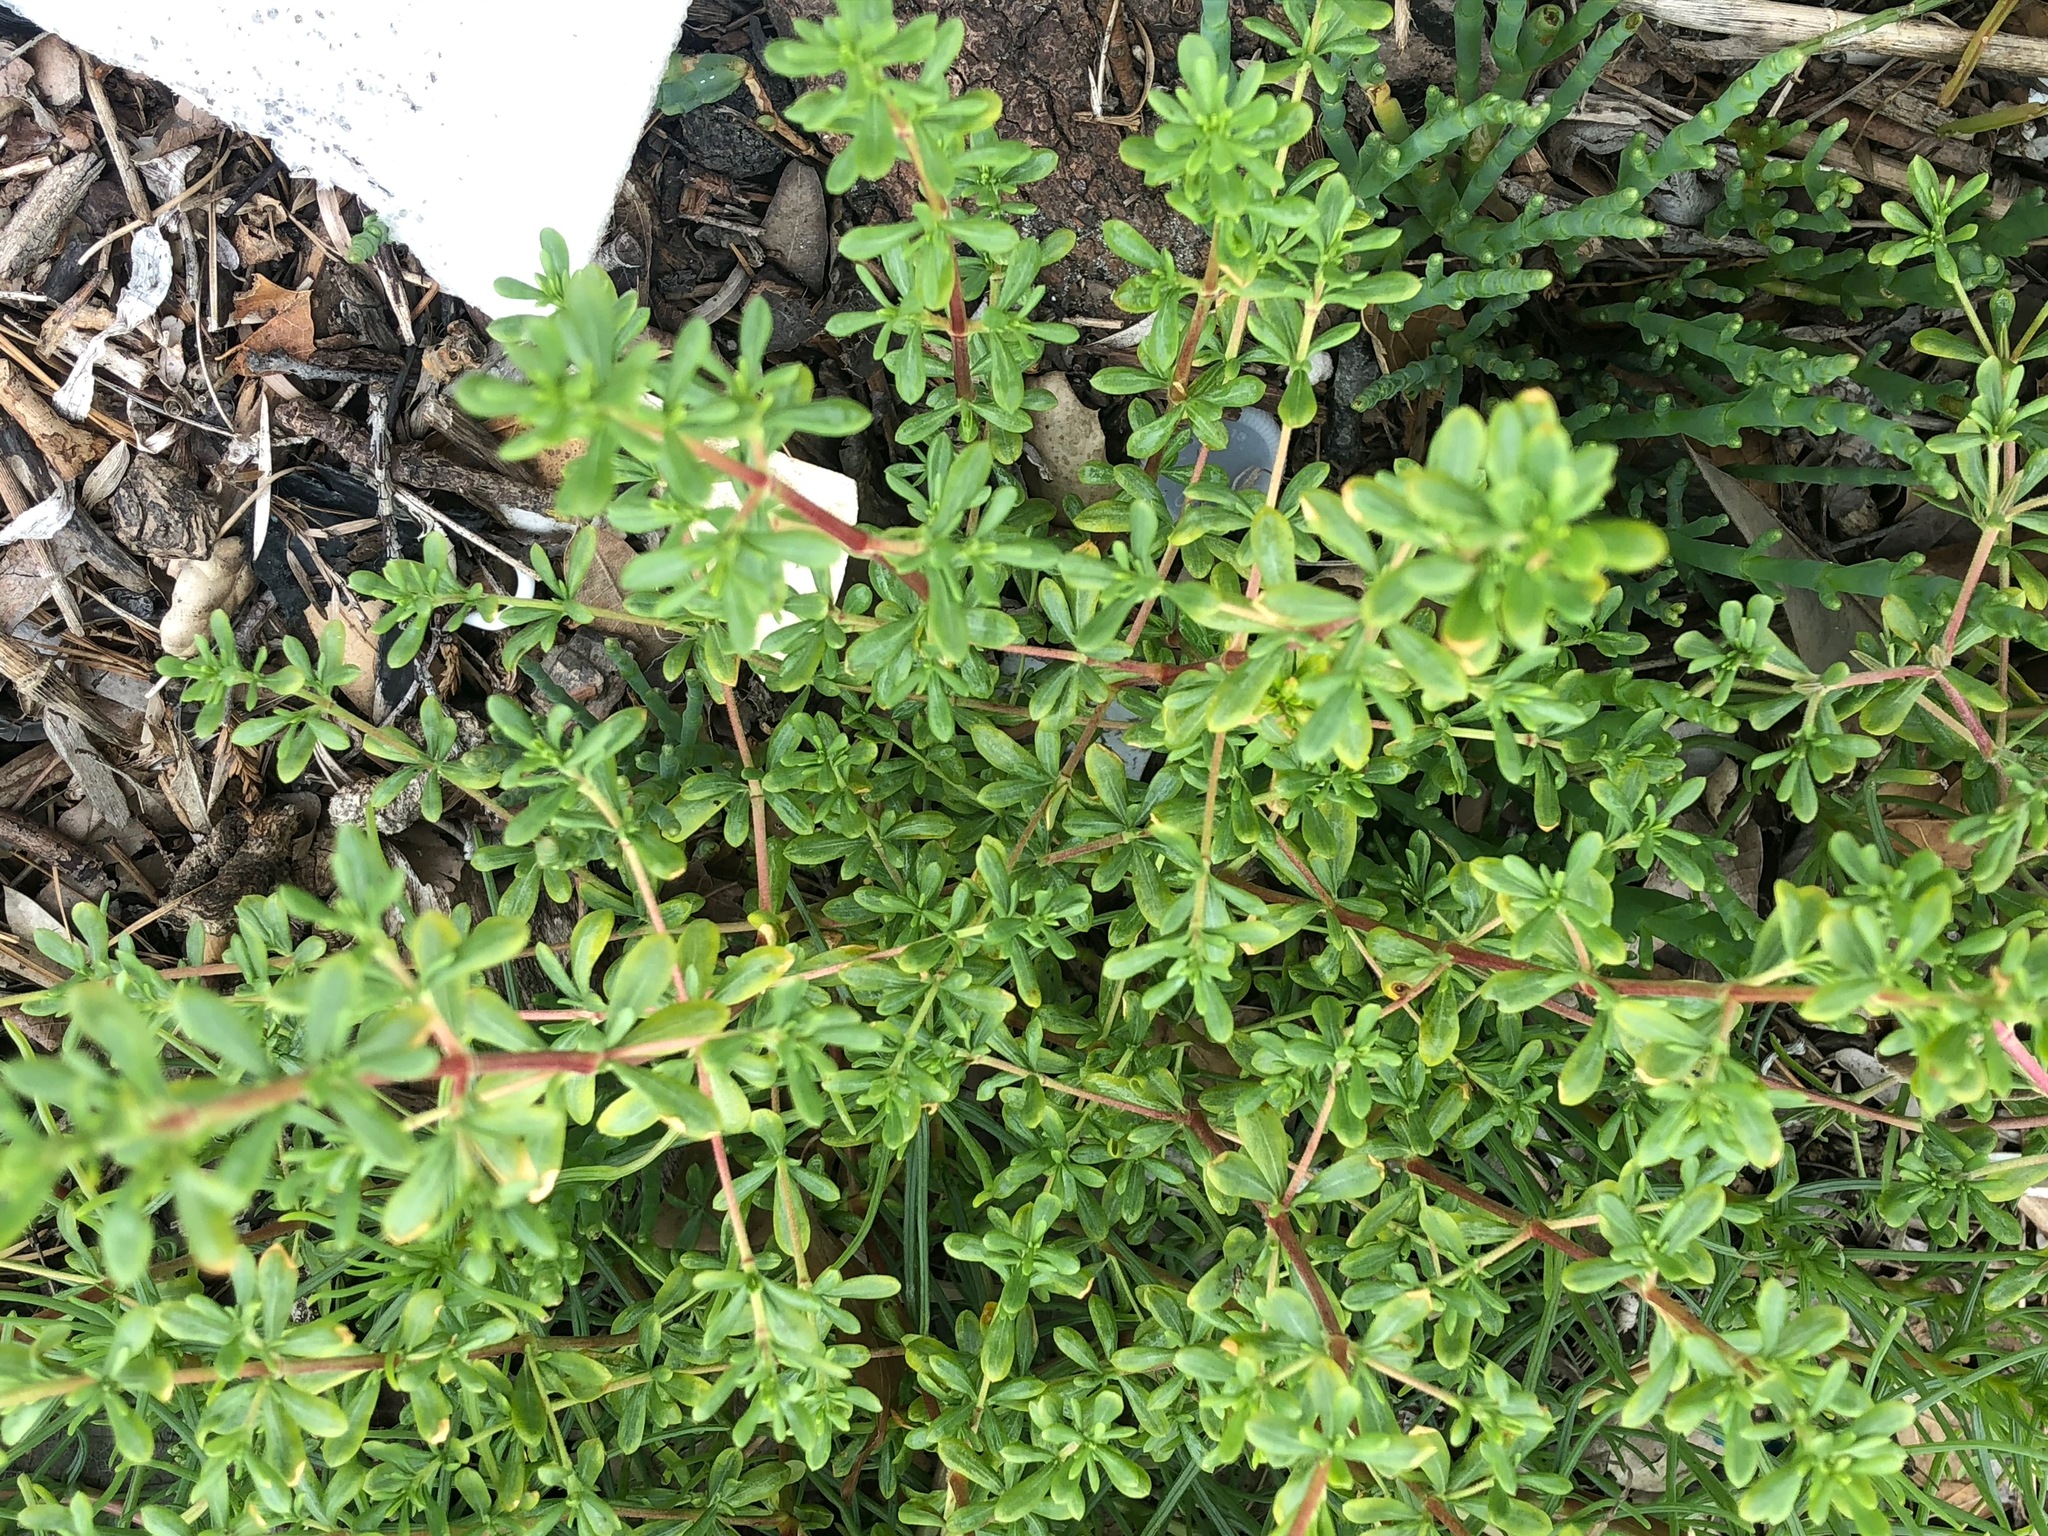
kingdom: Plantae
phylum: Tracheophyta
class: Magnoliopsida
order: Caryophyllales
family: Frankeniaceae
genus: Frankenia
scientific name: Frankenia salina
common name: Alkali seaheath
